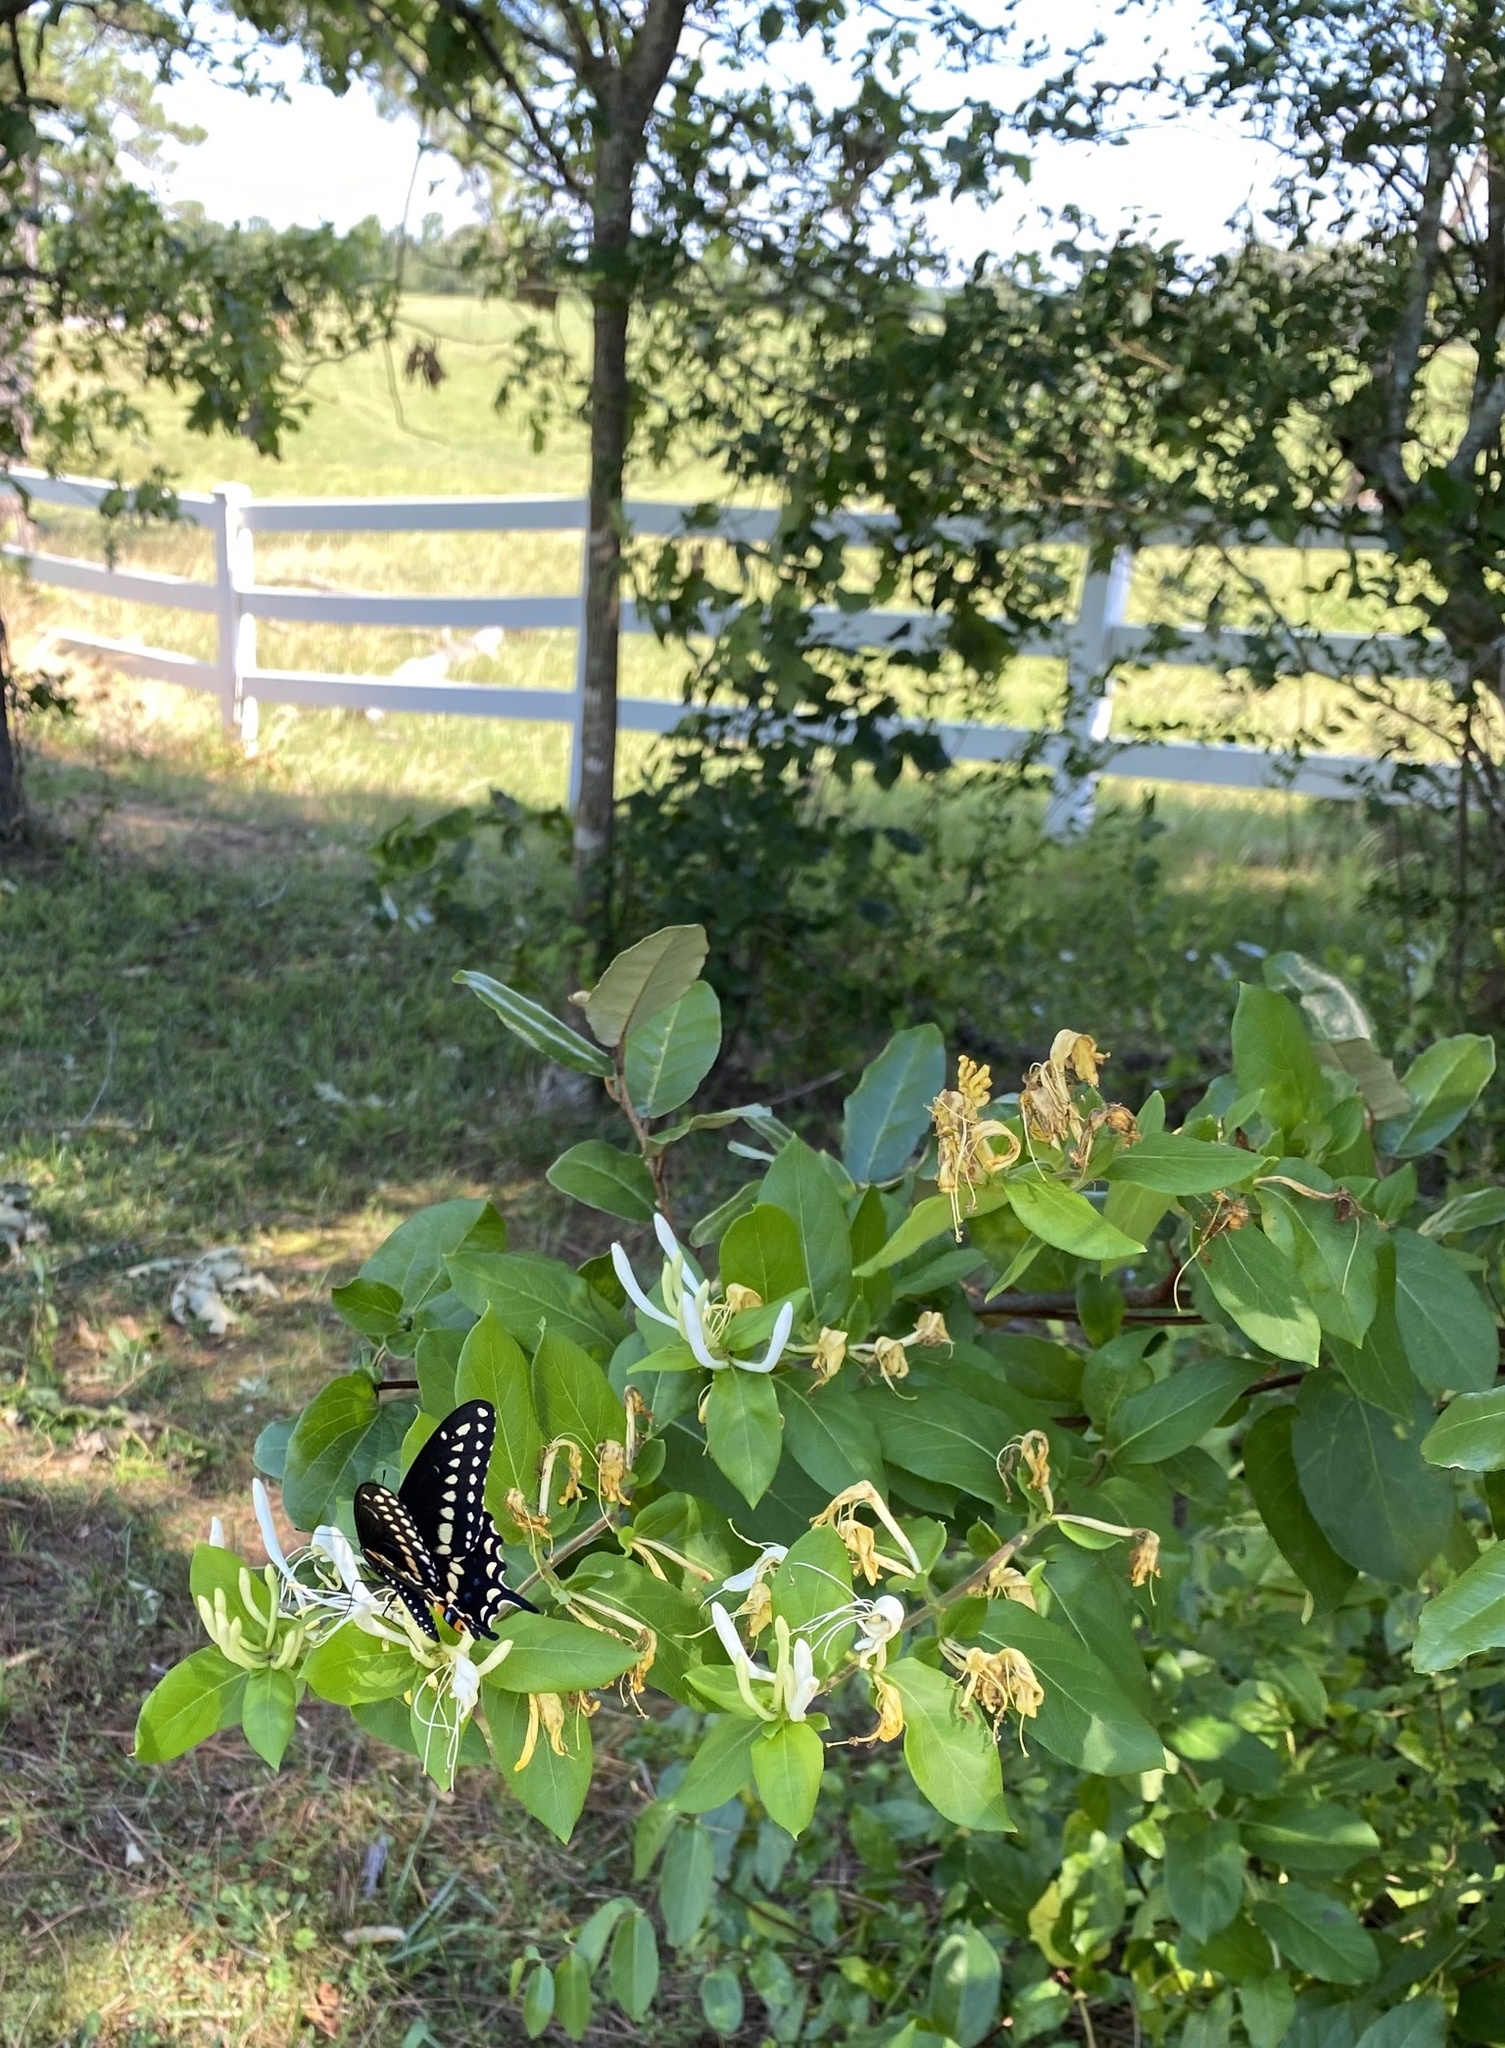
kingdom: Animalia
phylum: Arthropoda
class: Insecta
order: Lepidoptera
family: Papilionidae
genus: Papilio
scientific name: Papilio polyxenes
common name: Black swallowtail
